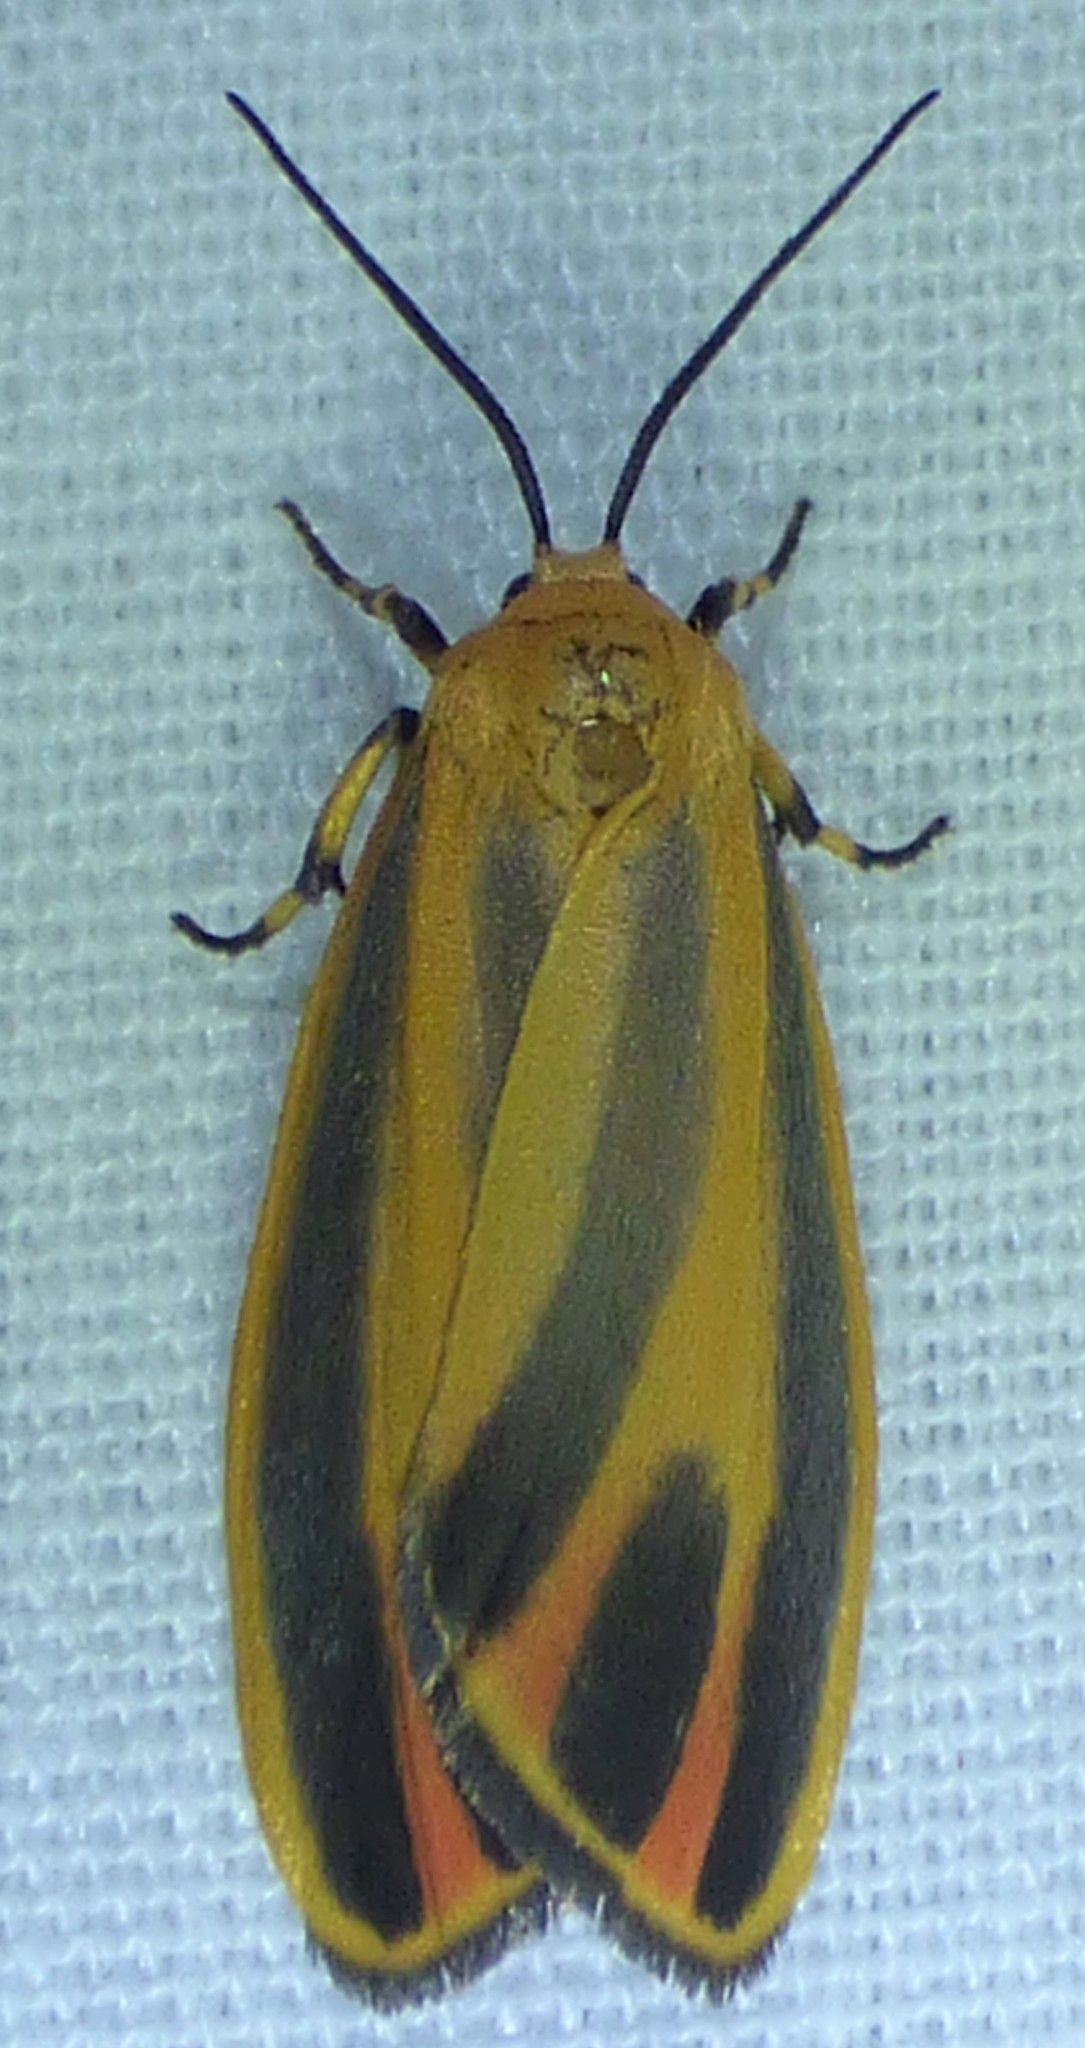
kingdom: Animalia
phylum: Arthropoda
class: Insecta
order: Lepidoptera
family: Erebidae
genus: Hypoprepia
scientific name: Hypoprepia fucosa
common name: Painted lichen moth
